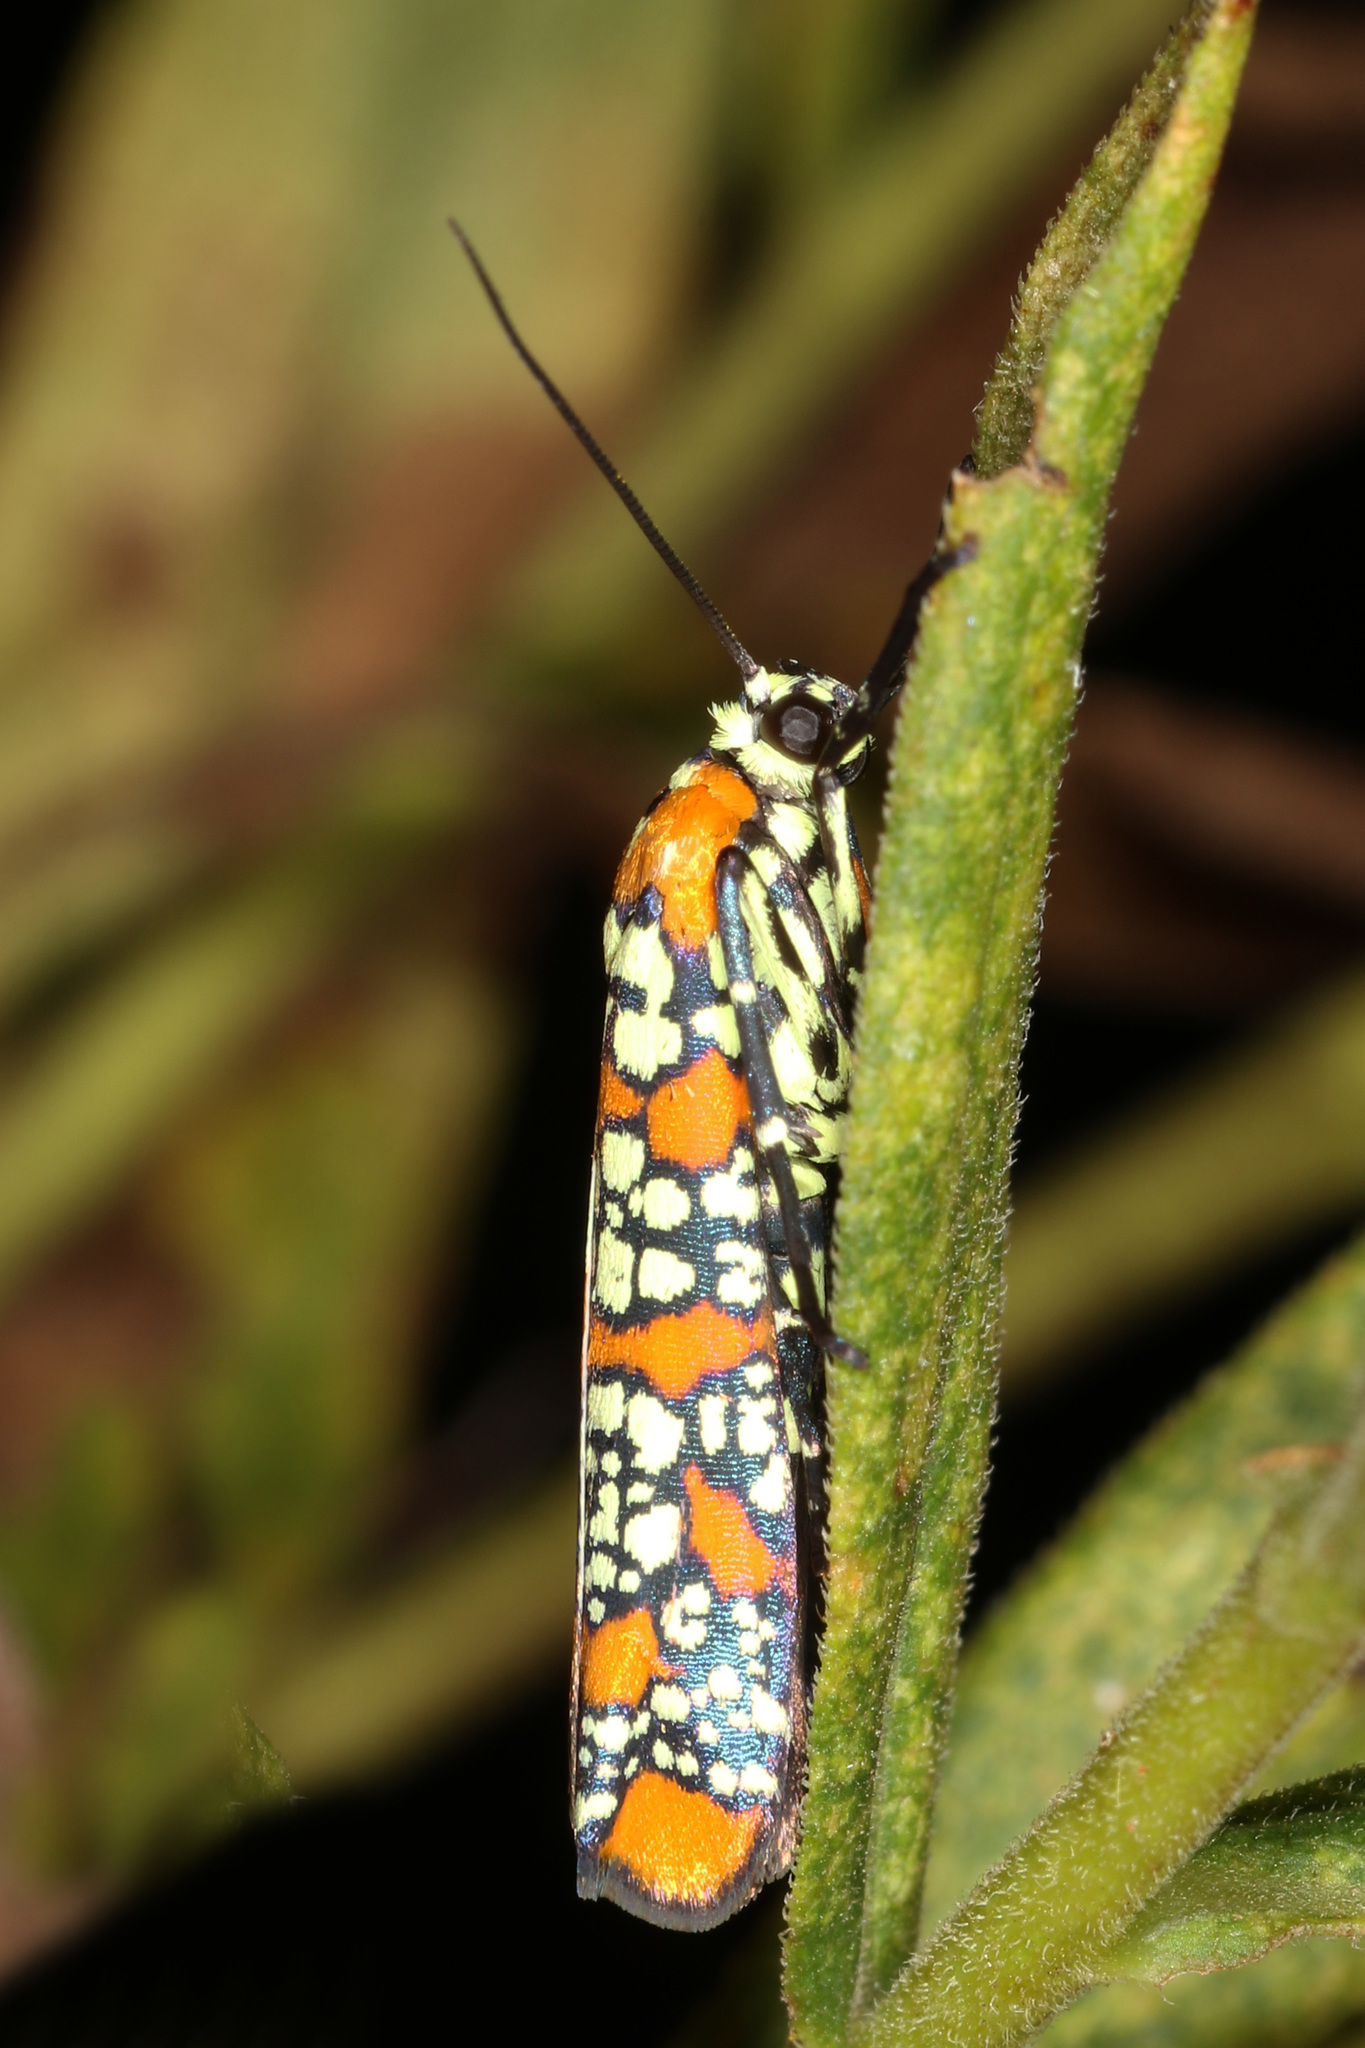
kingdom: Animalia
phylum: Arthropoda
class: Insecta
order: Lepidoptera
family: Attevidae
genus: Atteva
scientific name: Atteva punctella
